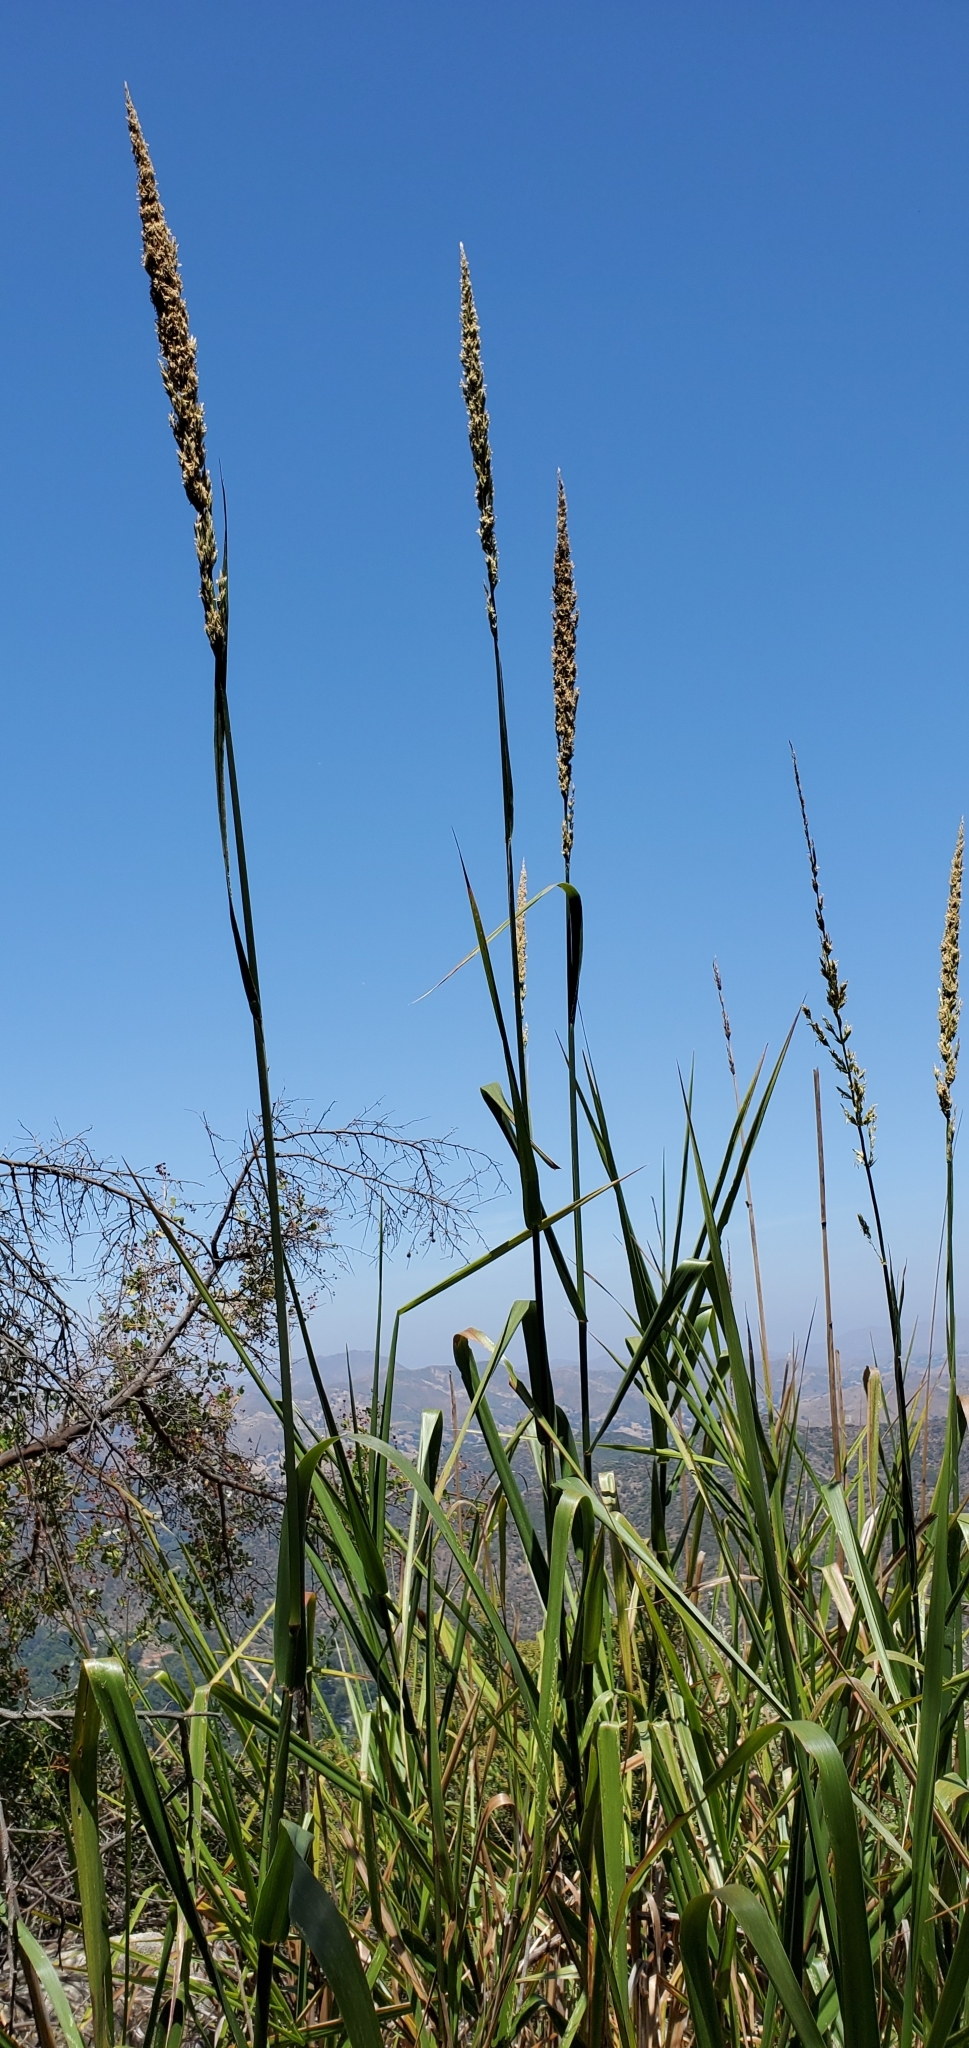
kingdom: Plantae
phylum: Tracheophyta
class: Liliopsida
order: Poales
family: Poaceae
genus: Leymus
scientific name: Leymus condensatus
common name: Giant wild rye
